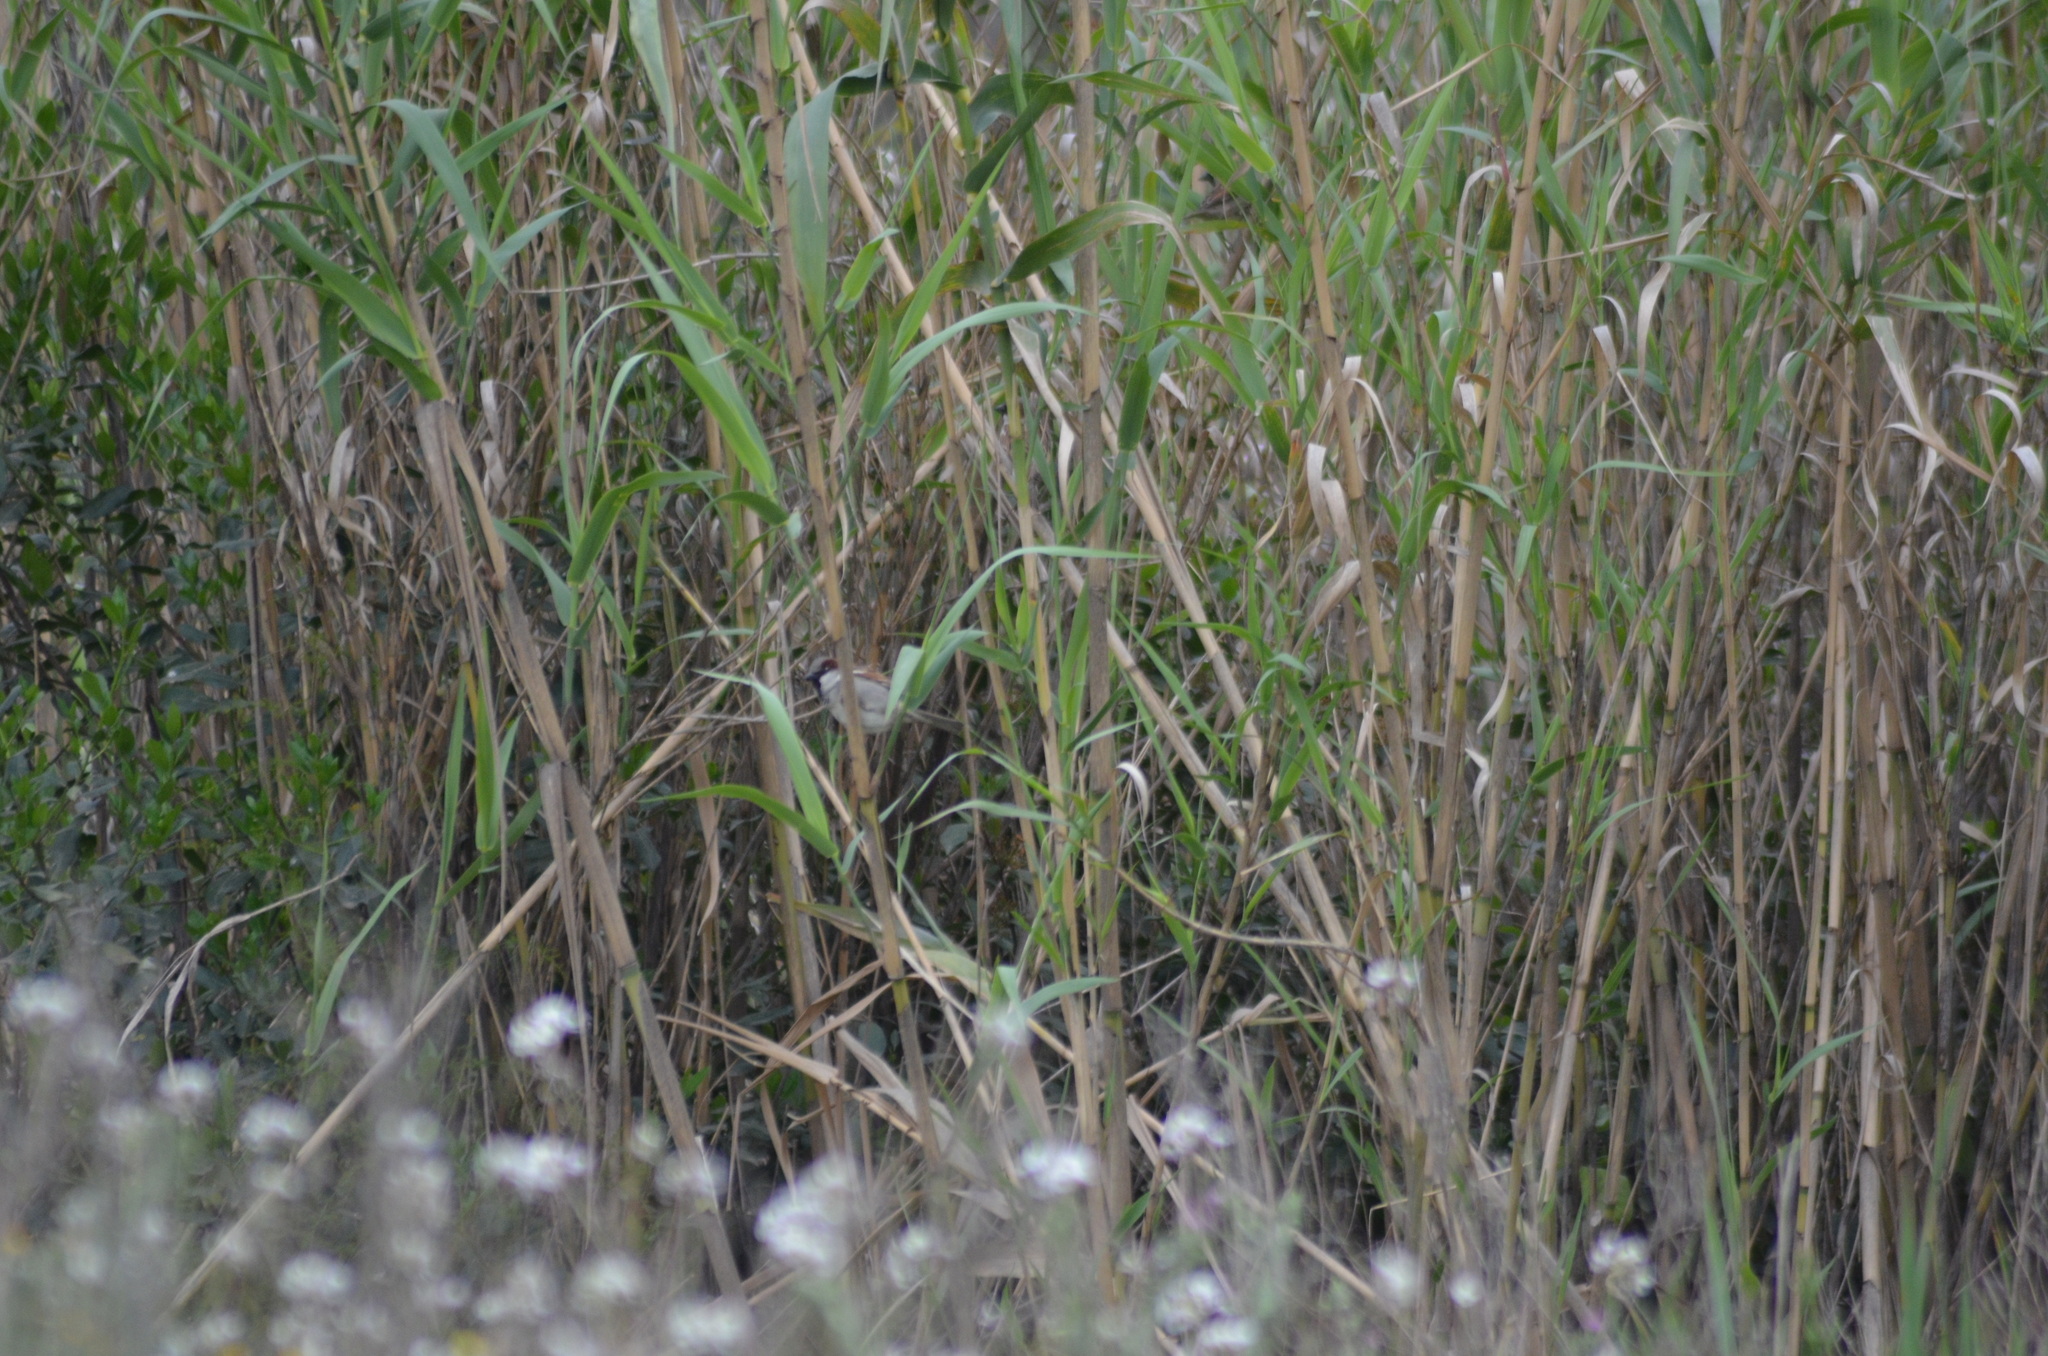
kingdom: Animalia
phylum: Chordata
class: Aves
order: Passeriformes
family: Passeridae
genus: Passer
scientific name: Passer domesticus
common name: House sparrow
